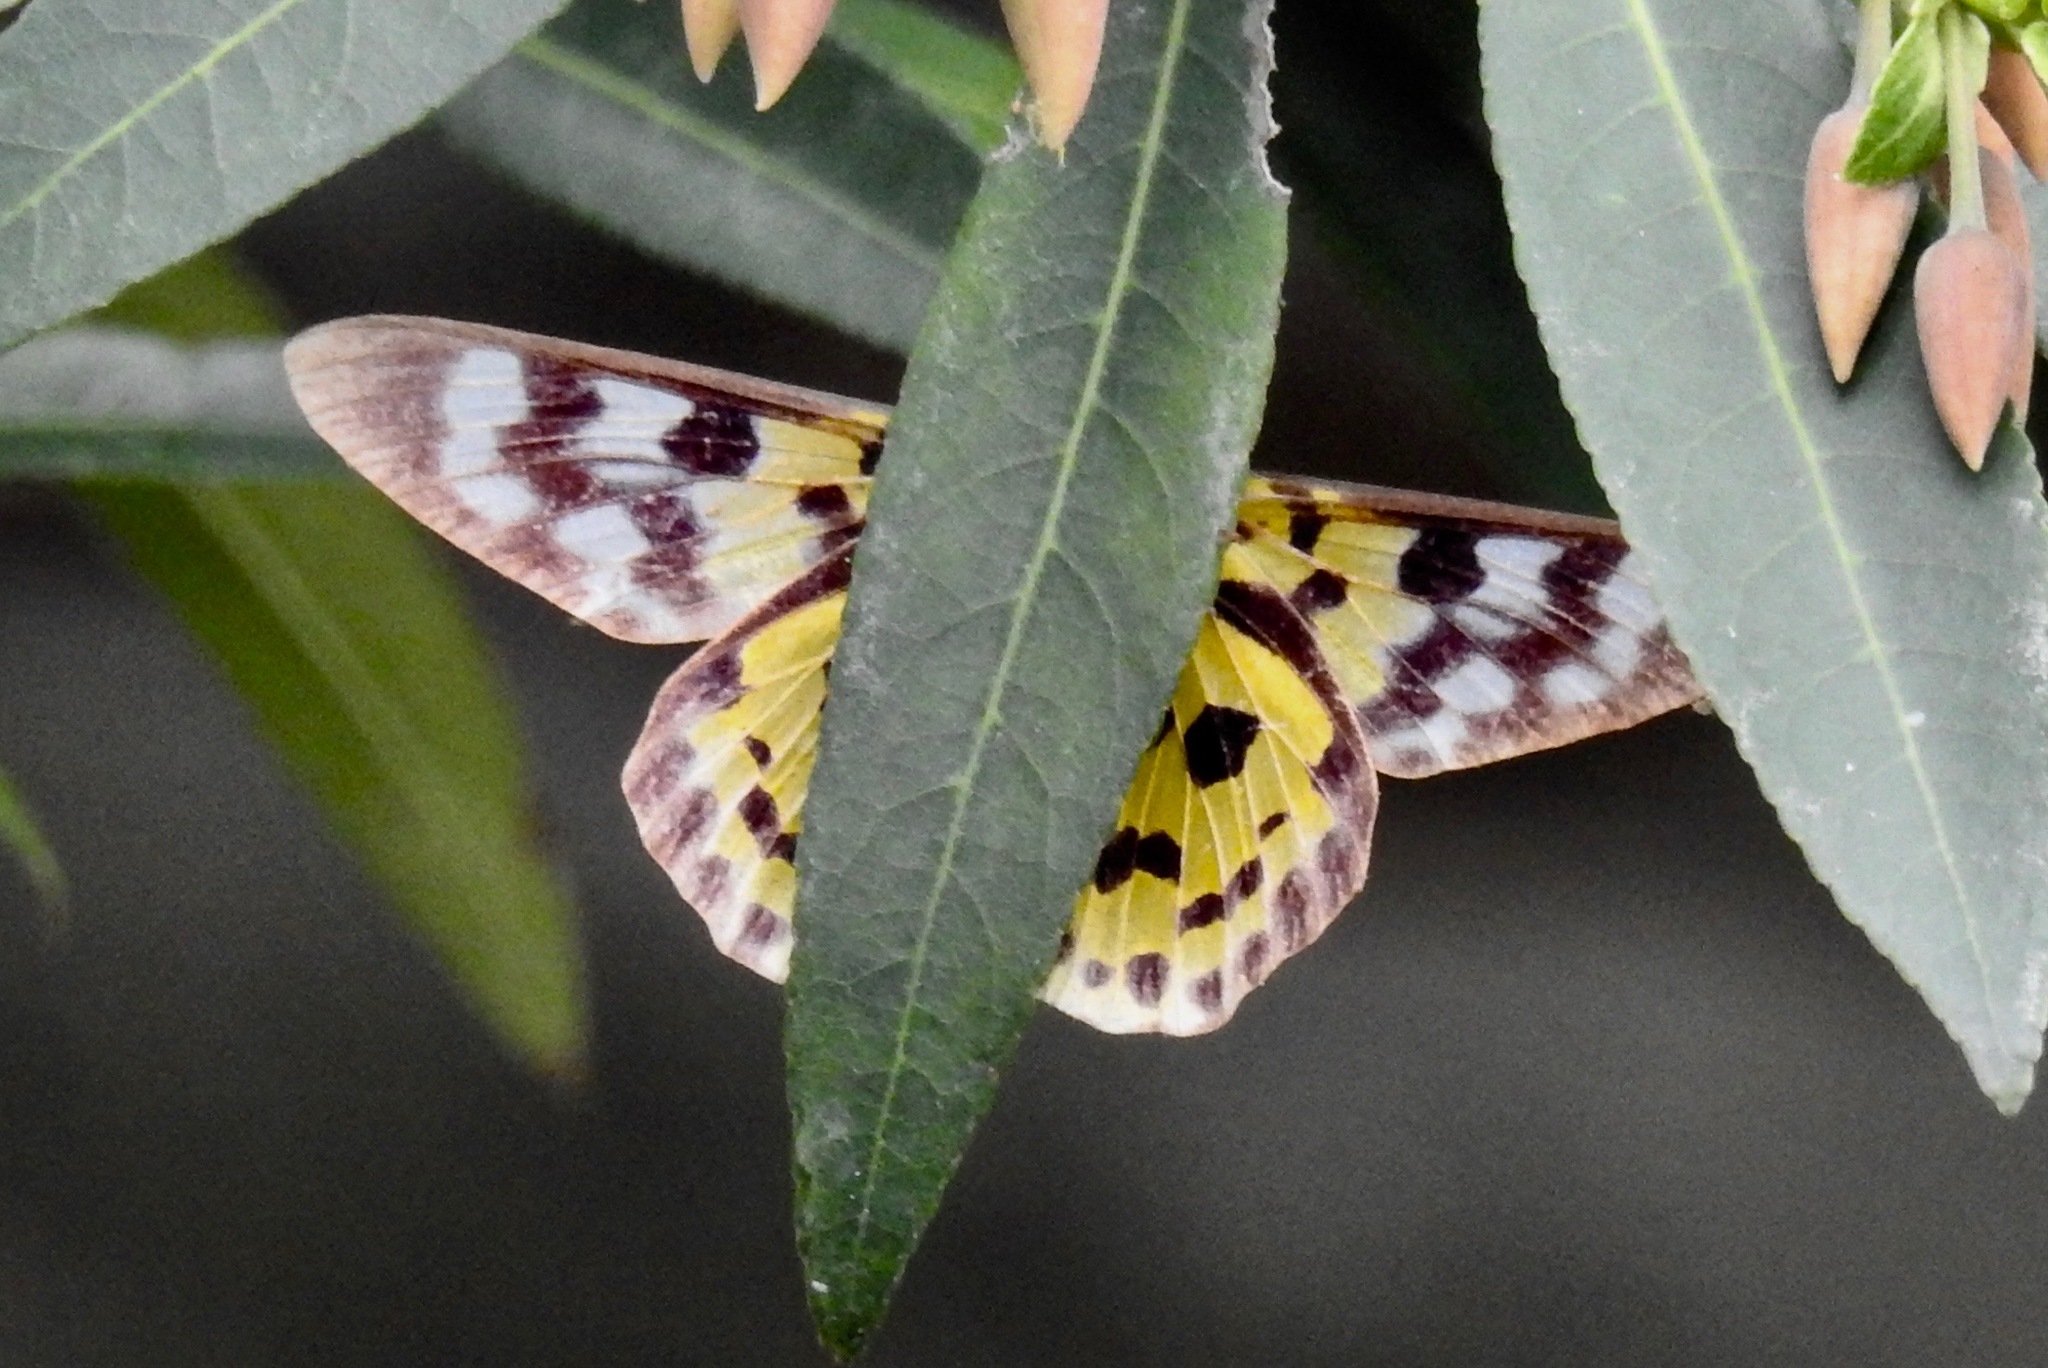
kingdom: Animalia
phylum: Arthropoda
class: Insecta
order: Lepidoptera
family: Geometridae
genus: Dysphania
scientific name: Dysphania militaris
